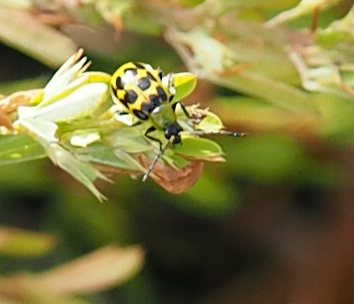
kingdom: Animalia
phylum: Arthropoda
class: Insecta
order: Coleoptera
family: Chrysomelidae
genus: Diabrotica
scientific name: Diabrotica undecimpunctata
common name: Spotted cucumber beetle
